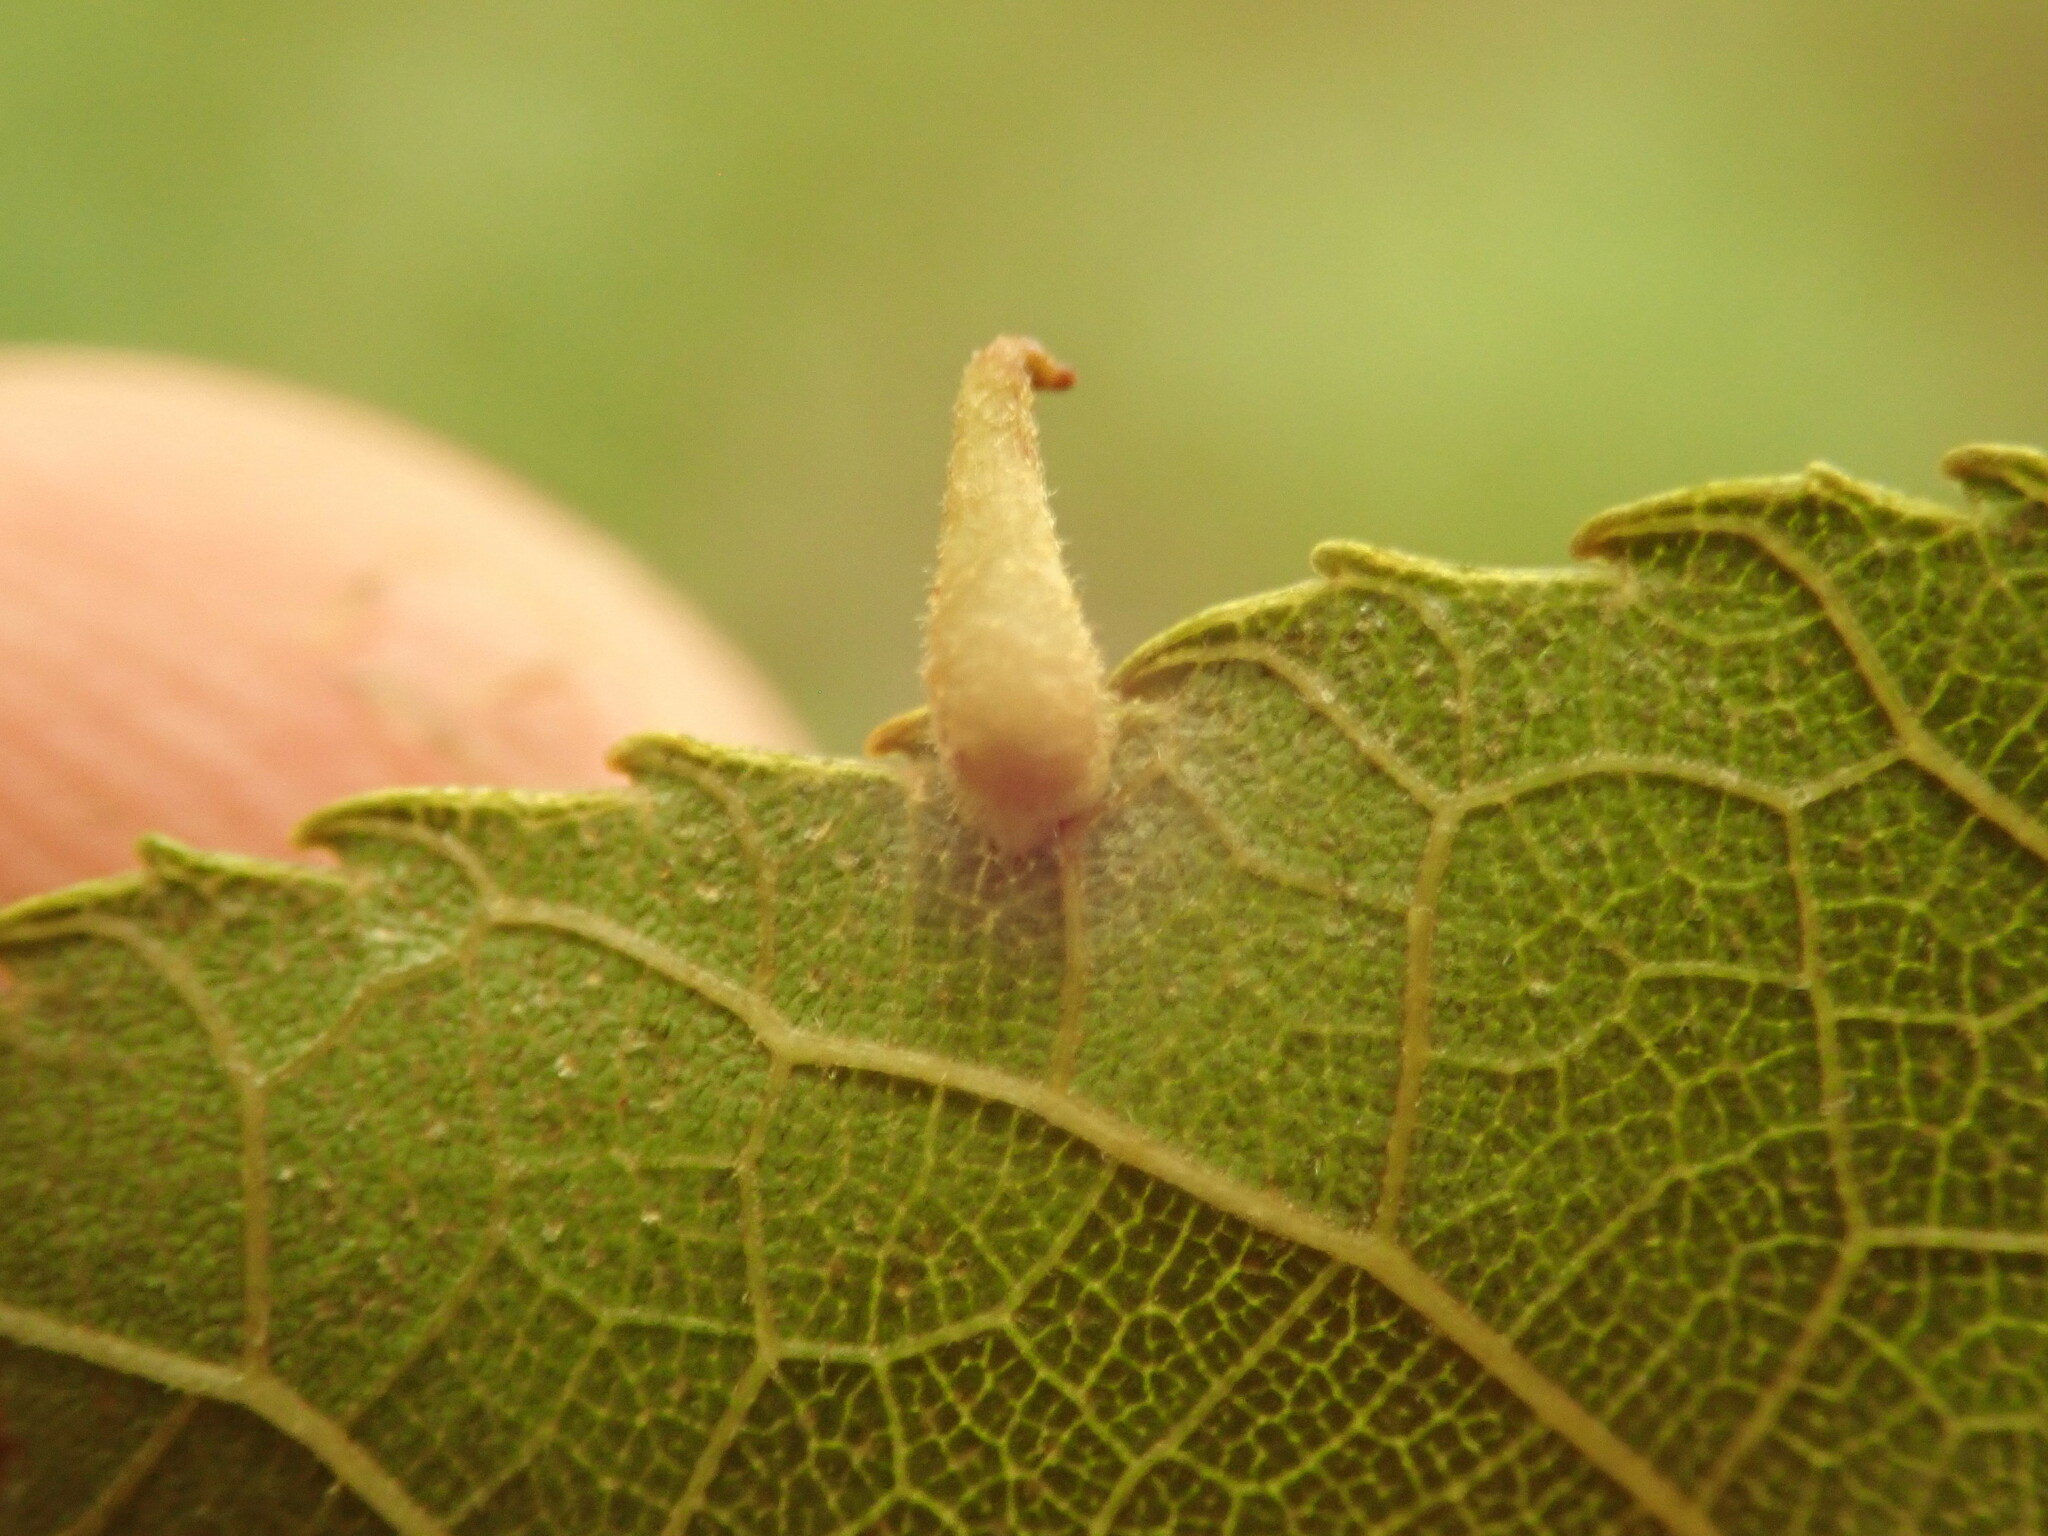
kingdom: Animalia
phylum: Arthropoda
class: Insecta
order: Diptera
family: Cecidomyiidae
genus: Caryomyia
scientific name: Caryomyia inclinata
